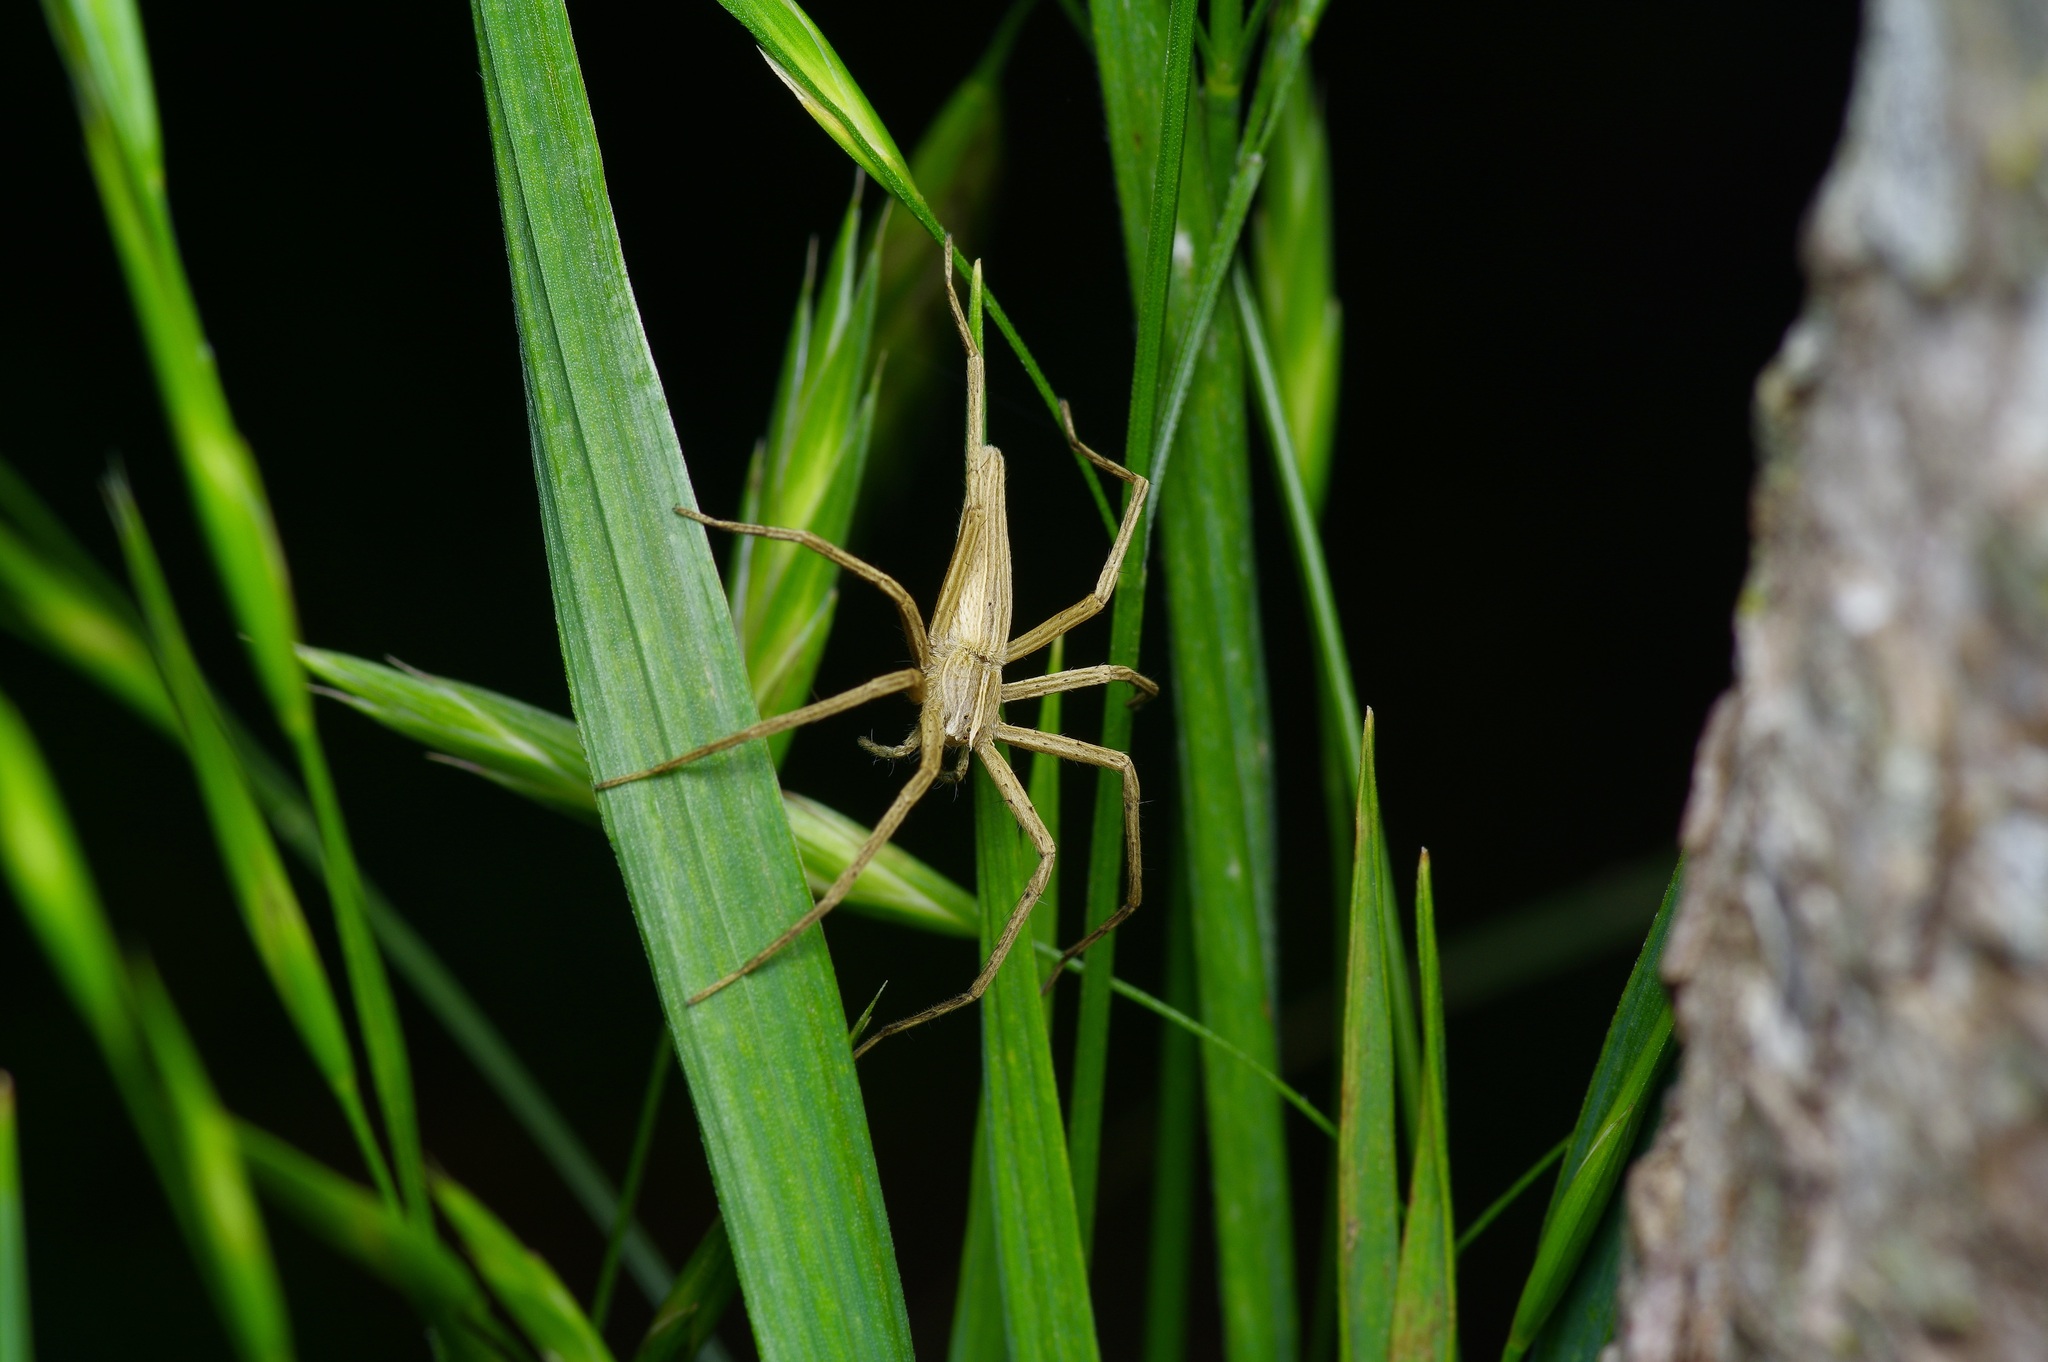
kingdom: Animalia
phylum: Arthropoda
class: Arachnida
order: Araneae
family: Pisauridae
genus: Pisaurina
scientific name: Pisaurina dubia
